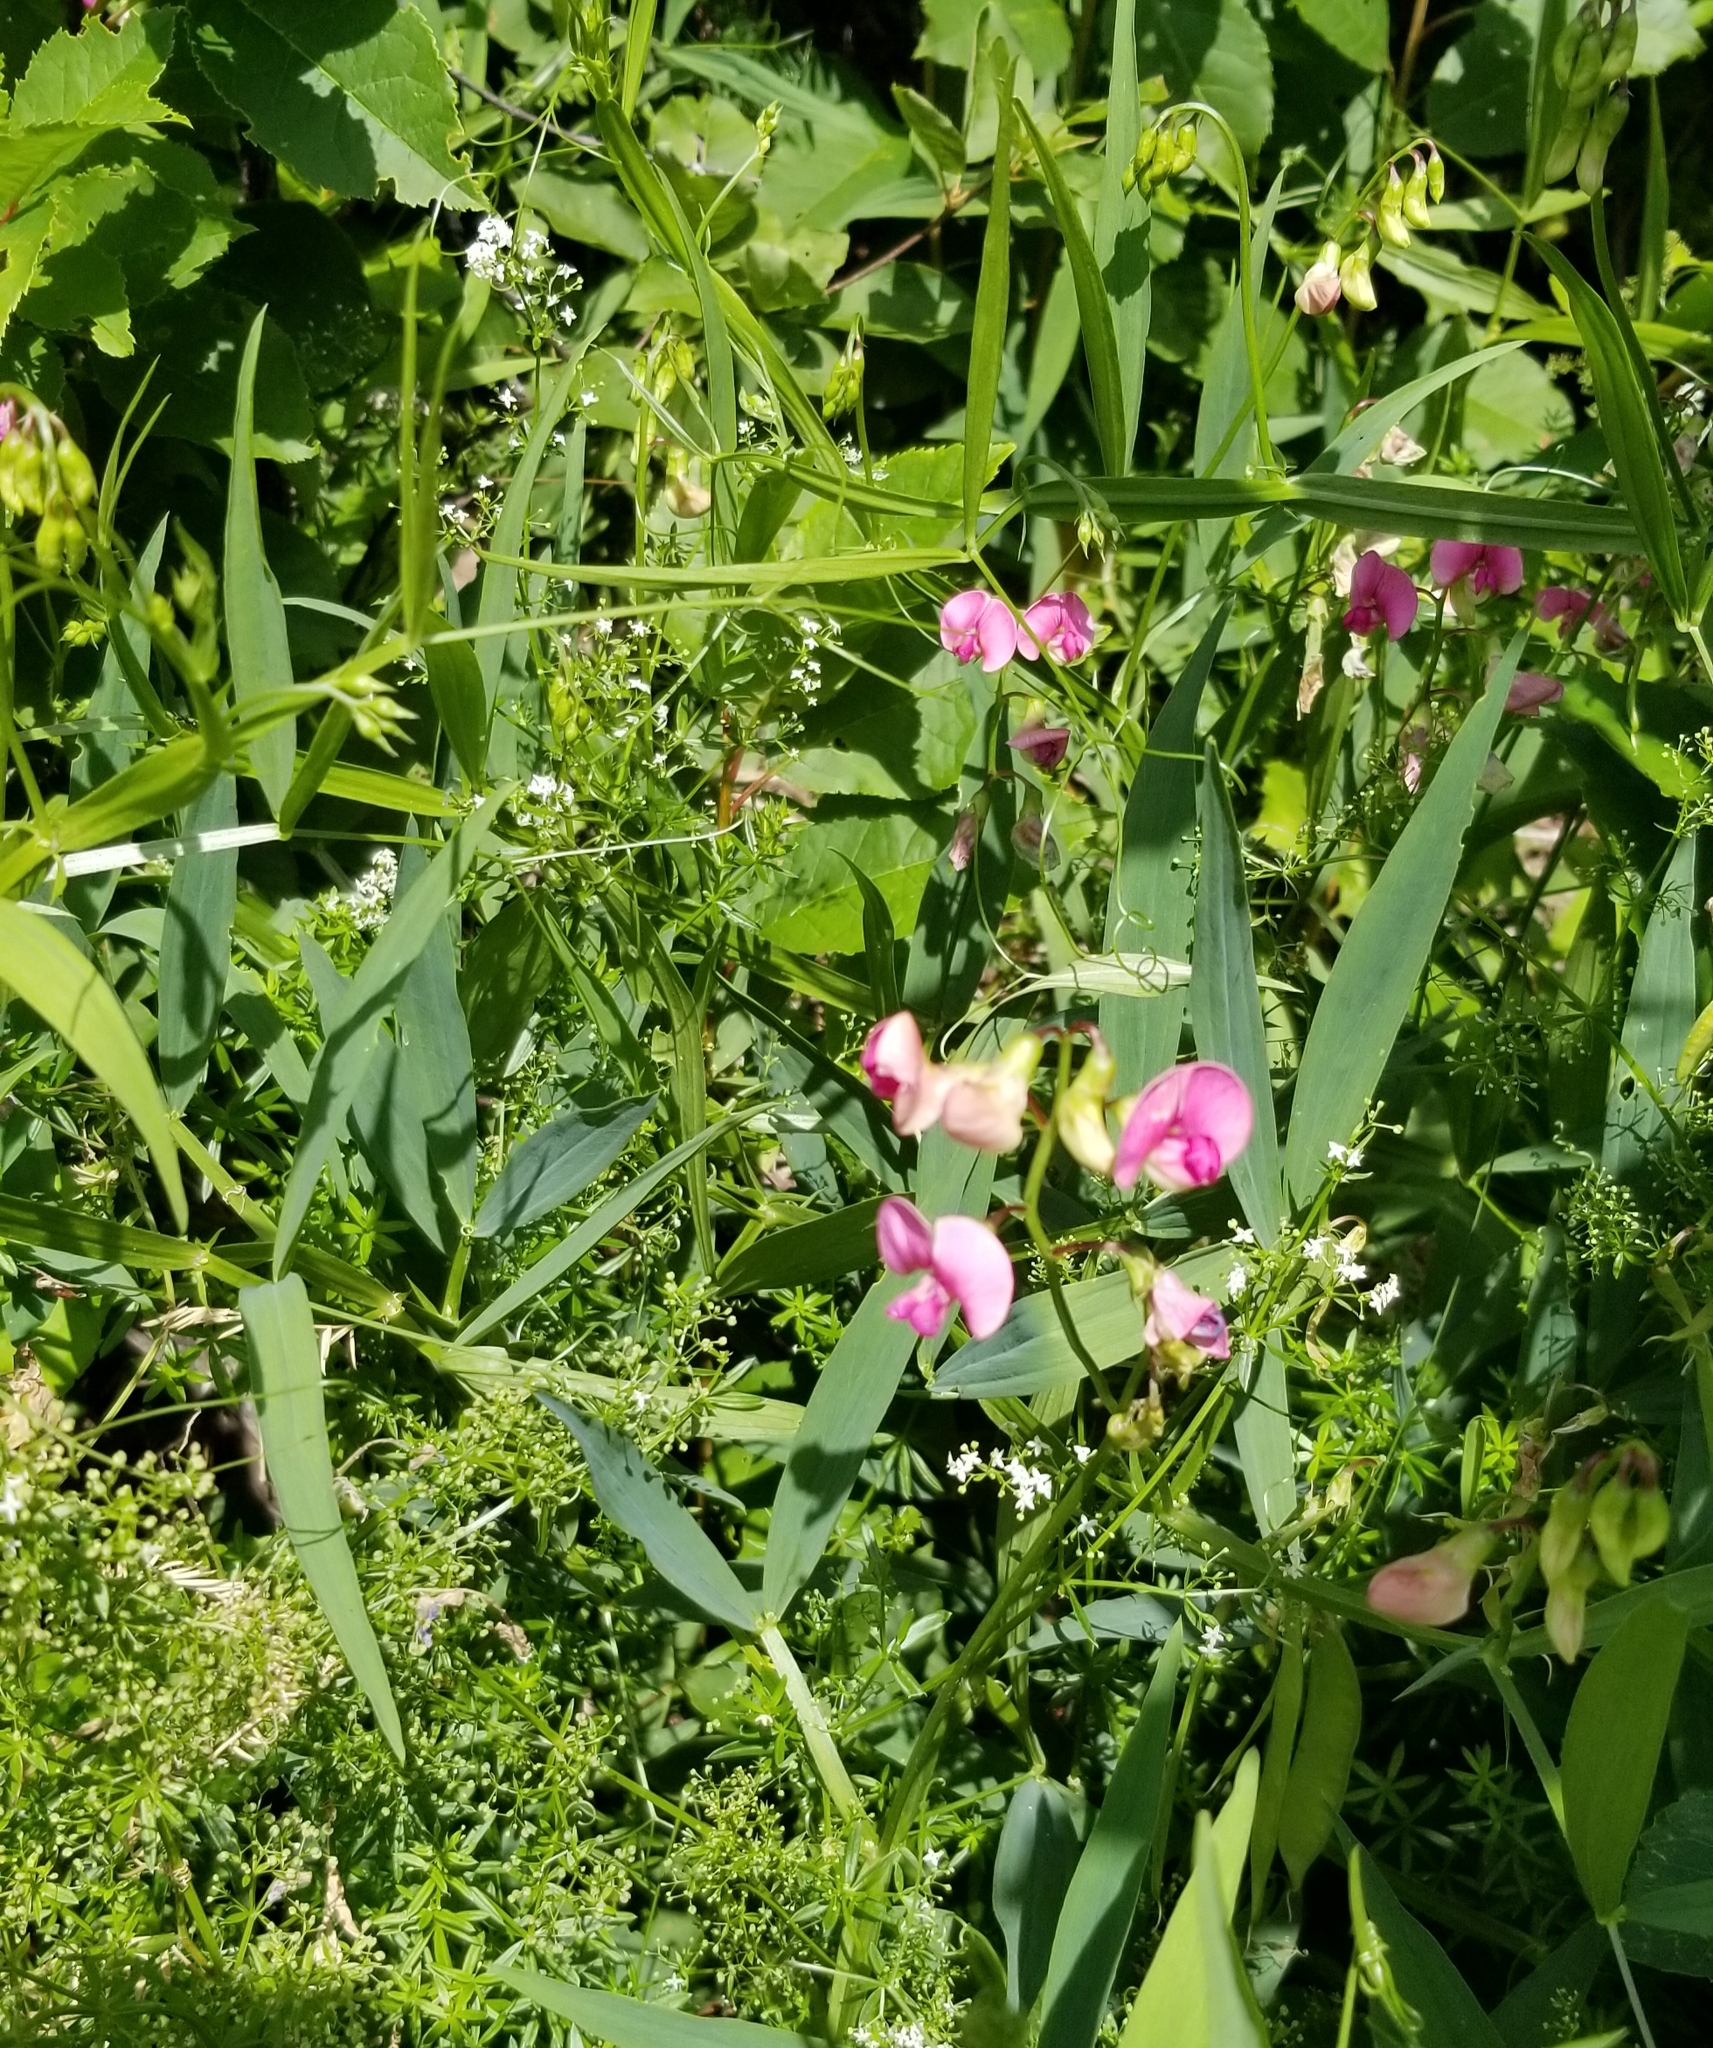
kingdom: Plantae
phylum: Tracheophyta
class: Magnoliopsida
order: Fabales
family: Fabaceae
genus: Lathyrus
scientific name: Lathyrus sylvestris
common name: Flat pea
